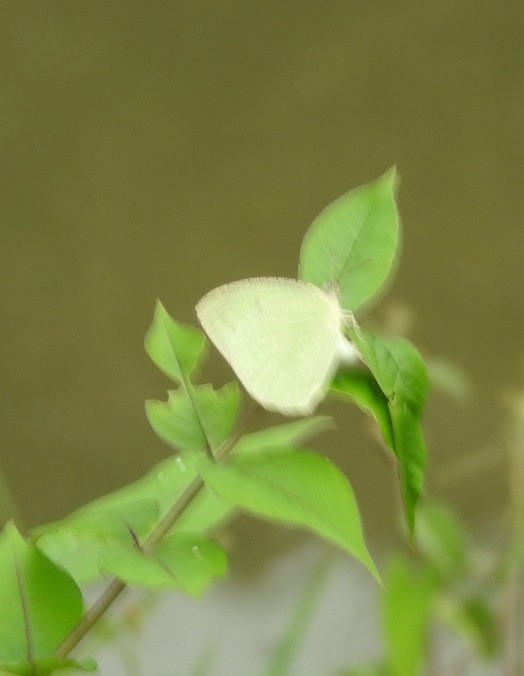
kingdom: Animalia
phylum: Arthropoda
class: Insecta
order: Lepidoptera
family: Pieridae
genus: Catopsilia
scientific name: Catopsilia pyranthe
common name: Mottled emigrant
